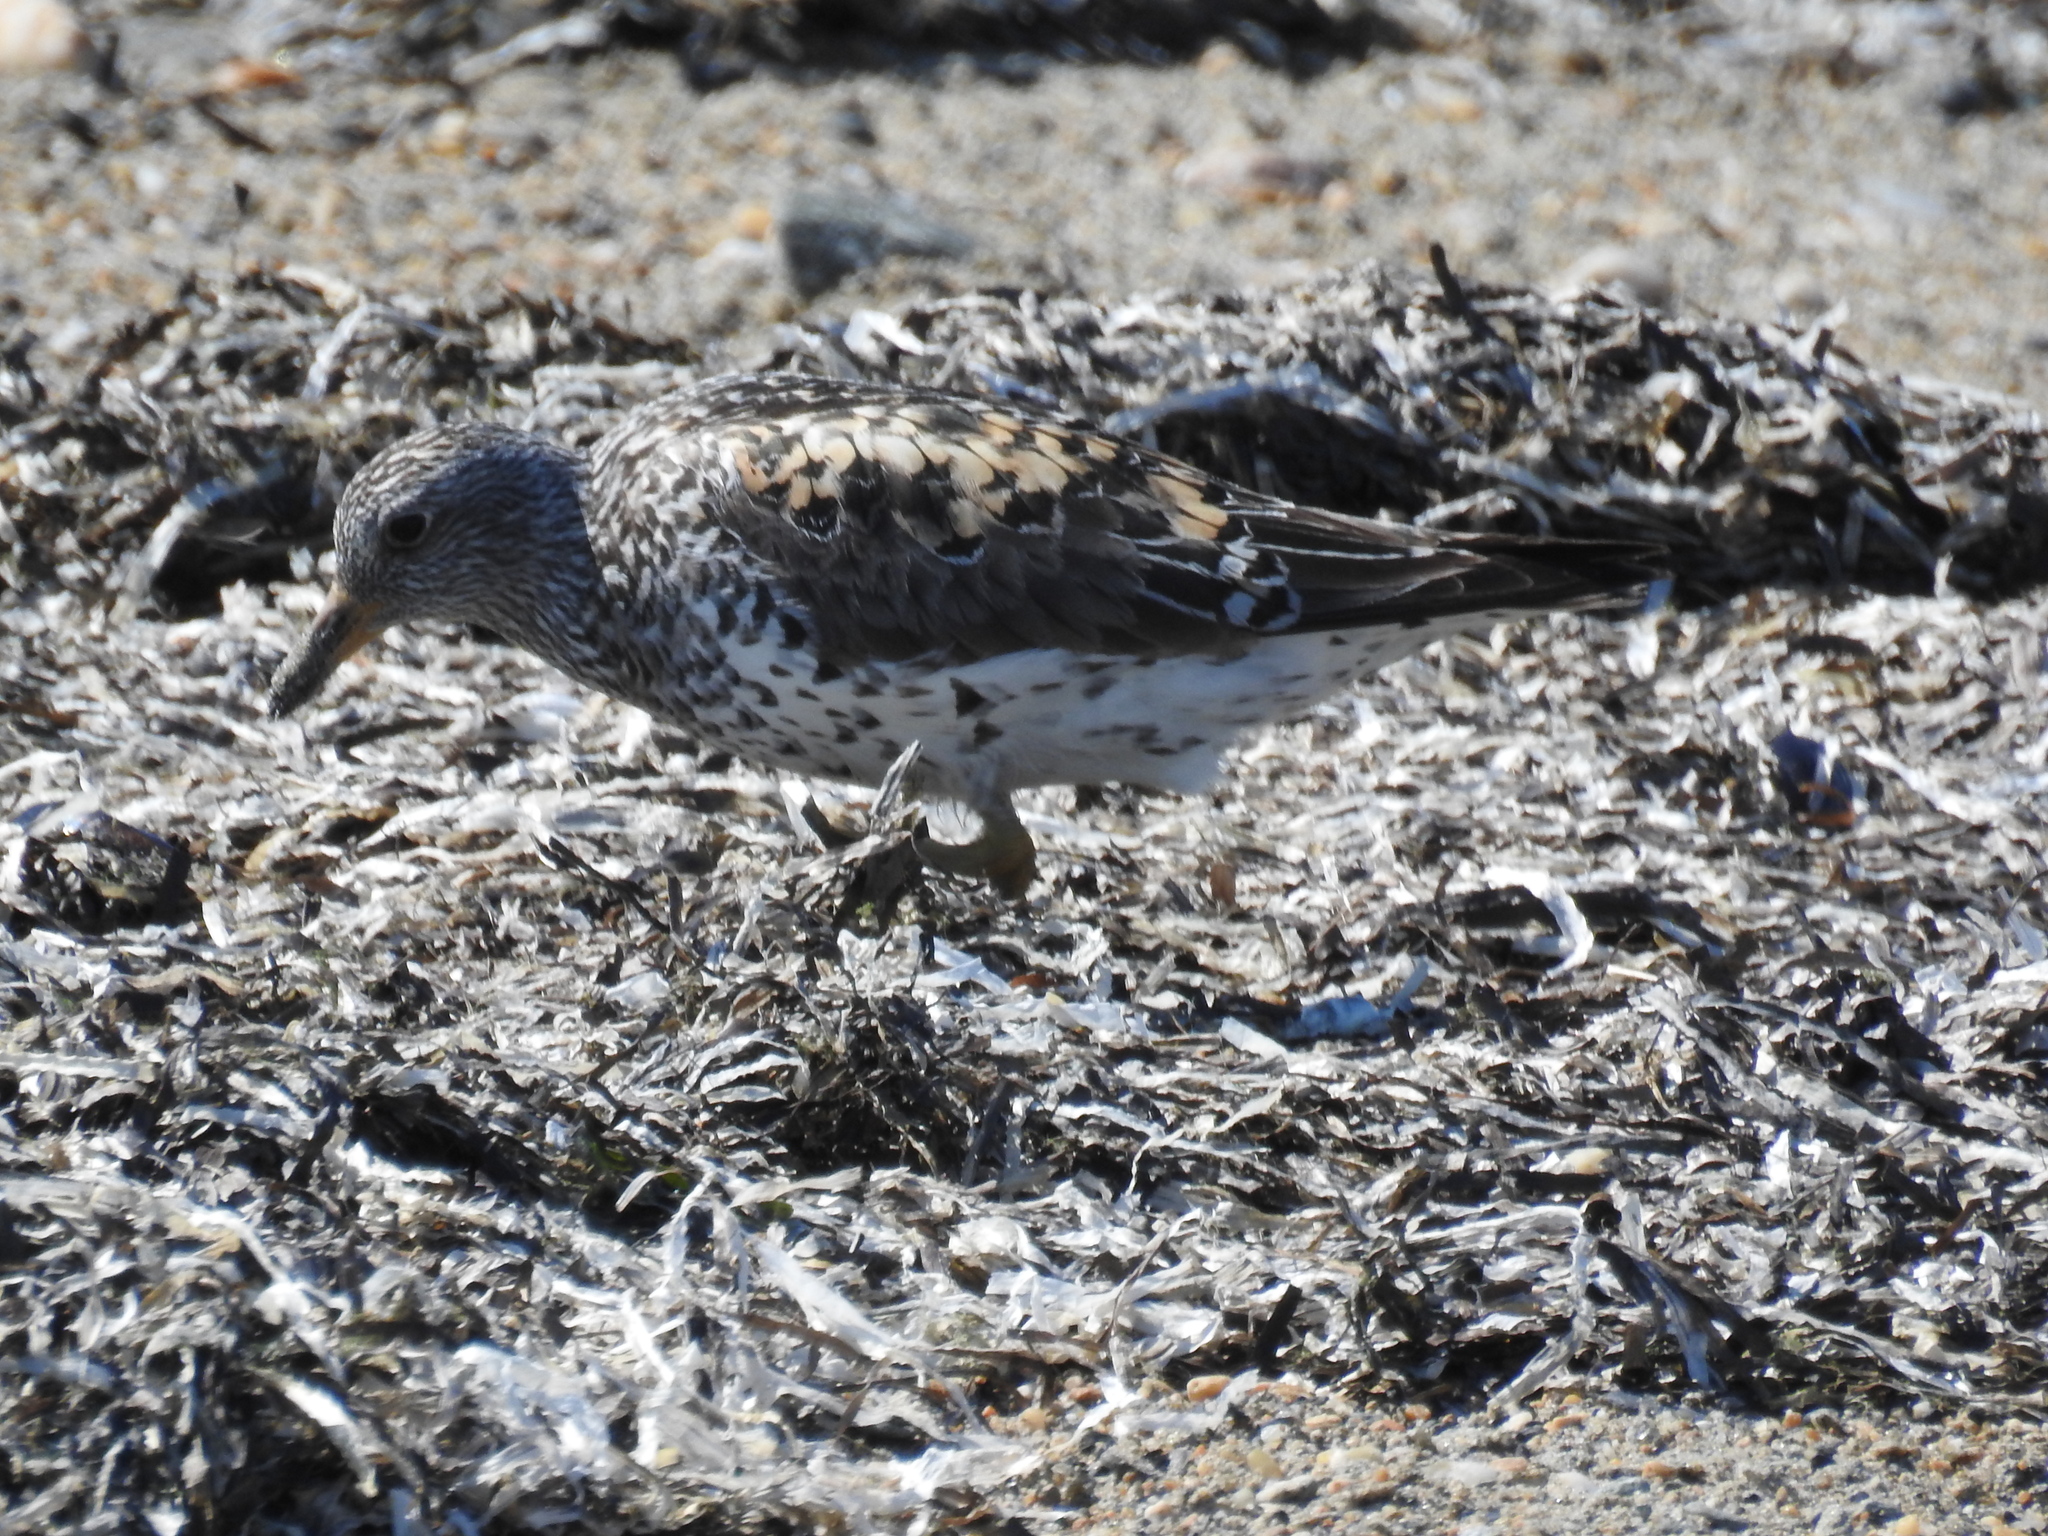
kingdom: Animalia
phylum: Chordata
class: Aves
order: Charadriiformes
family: Scolopacidae
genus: Calidris
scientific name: Calidris virgata
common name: Surfbird
